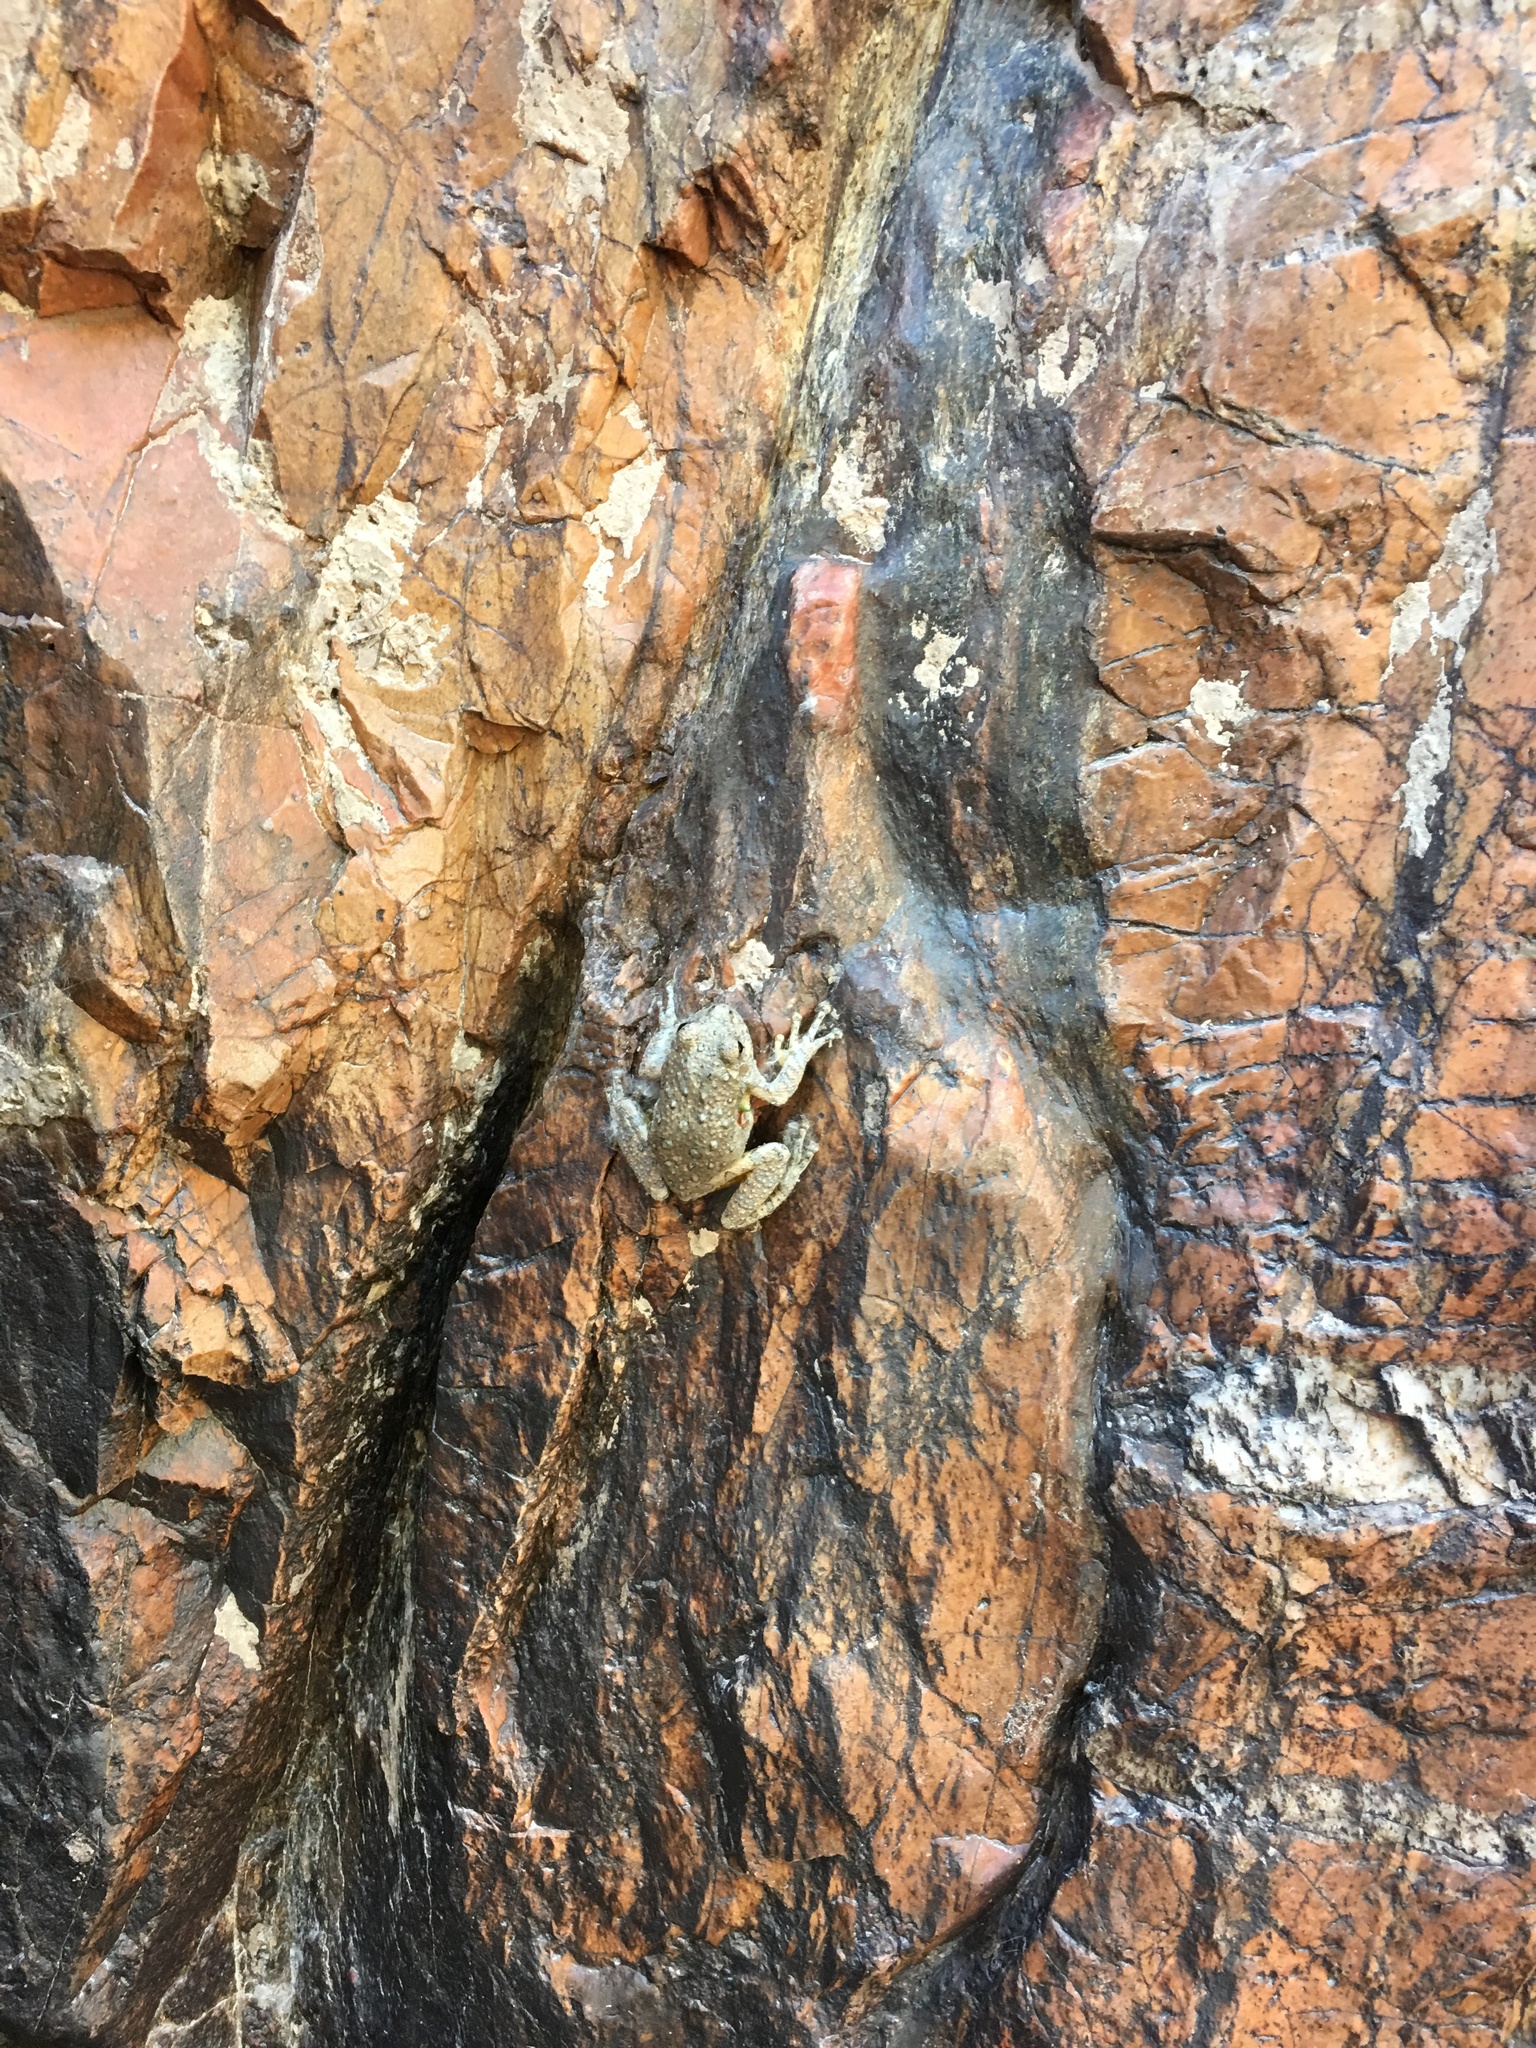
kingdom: Animalia
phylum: Chordata
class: Amphibia
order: Anura
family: Hylidae
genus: Dryophytes
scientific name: Dryophytes arenicolor
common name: Canyon treefrog
